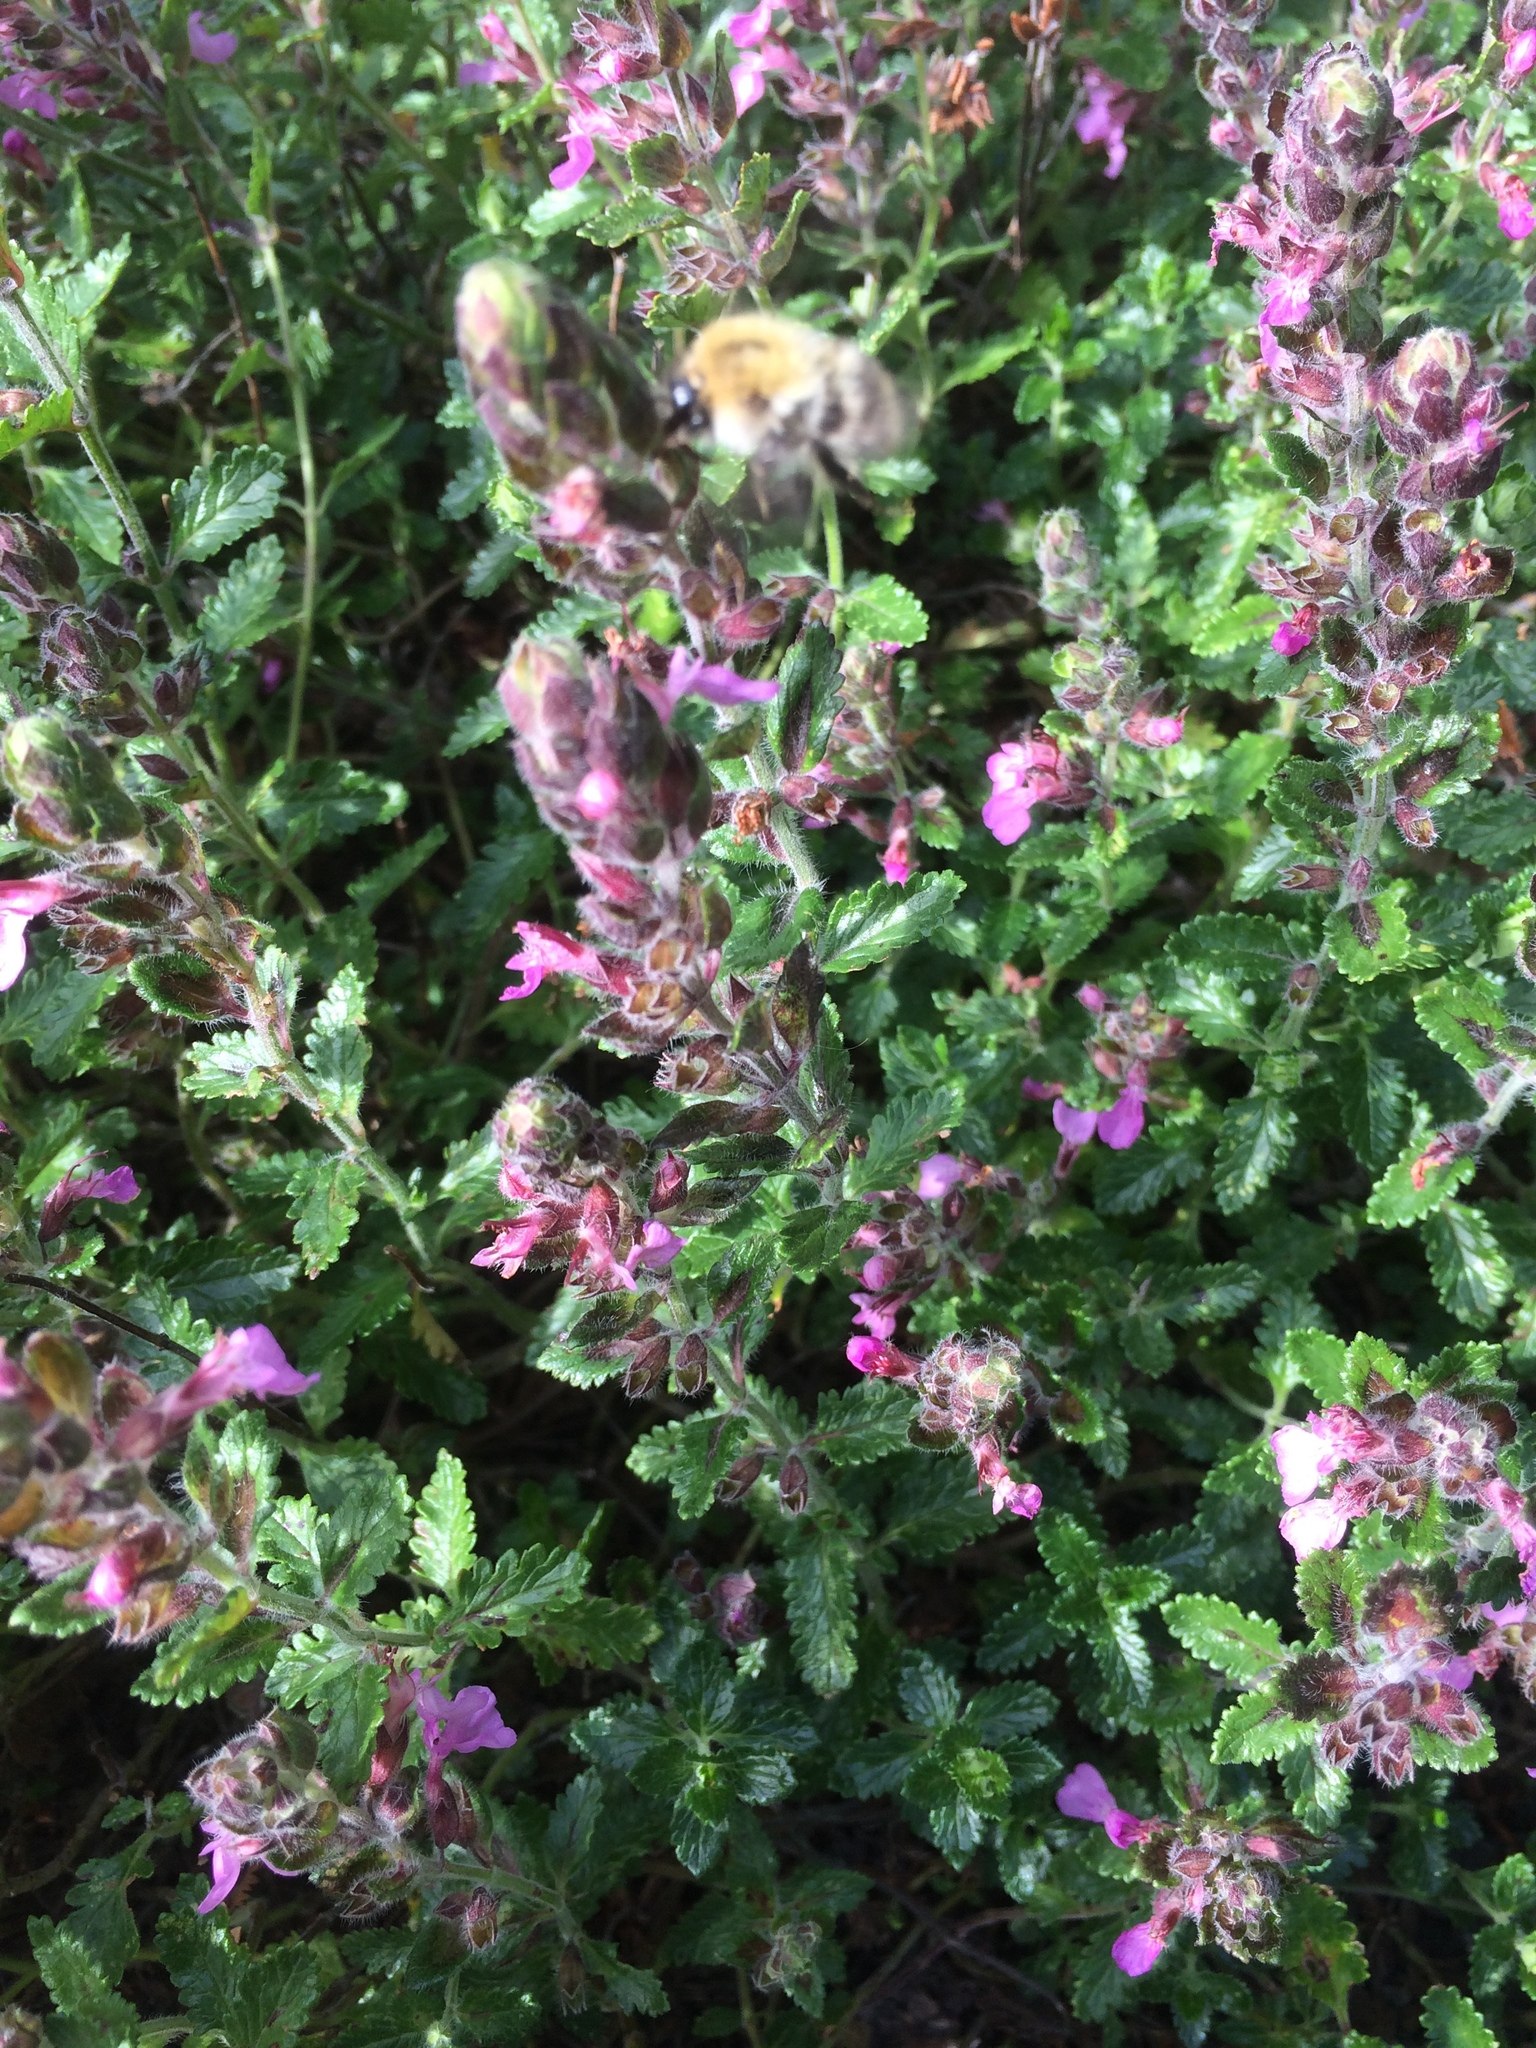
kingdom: Plantae
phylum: Tracheophyta
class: Magnoliopsida
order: Lamiales
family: Lamiaceae
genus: Teucrium
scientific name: Teucrium chamaedrys
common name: Wall germander
